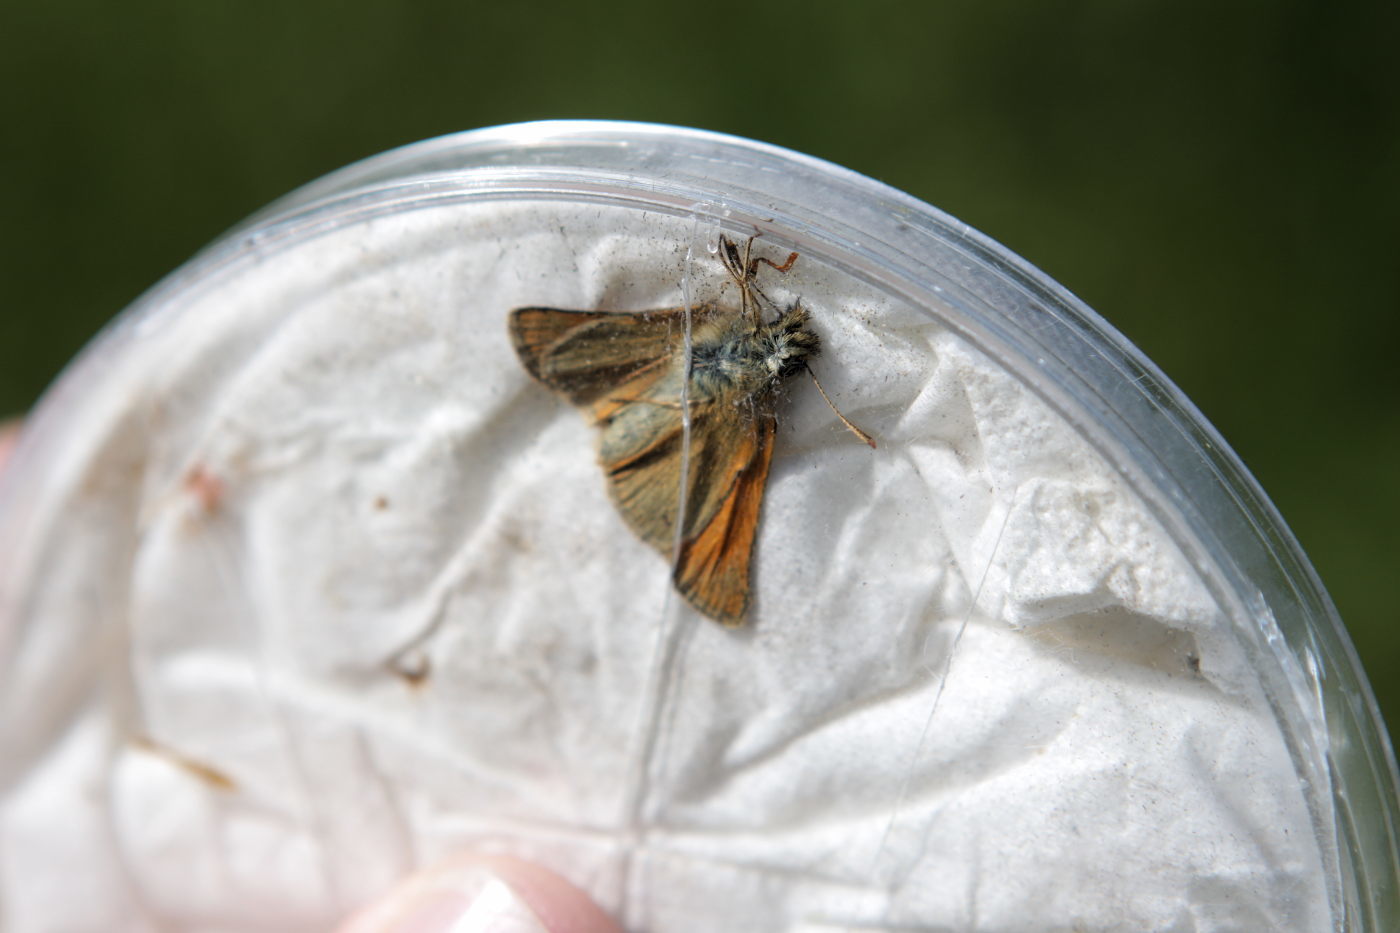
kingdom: Animalia
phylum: Arthropoda
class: Insecta
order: Lepidoptera
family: Hesperiidae
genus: Thymelicus
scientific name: Thymelicus sylvestris
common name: Small skipper
